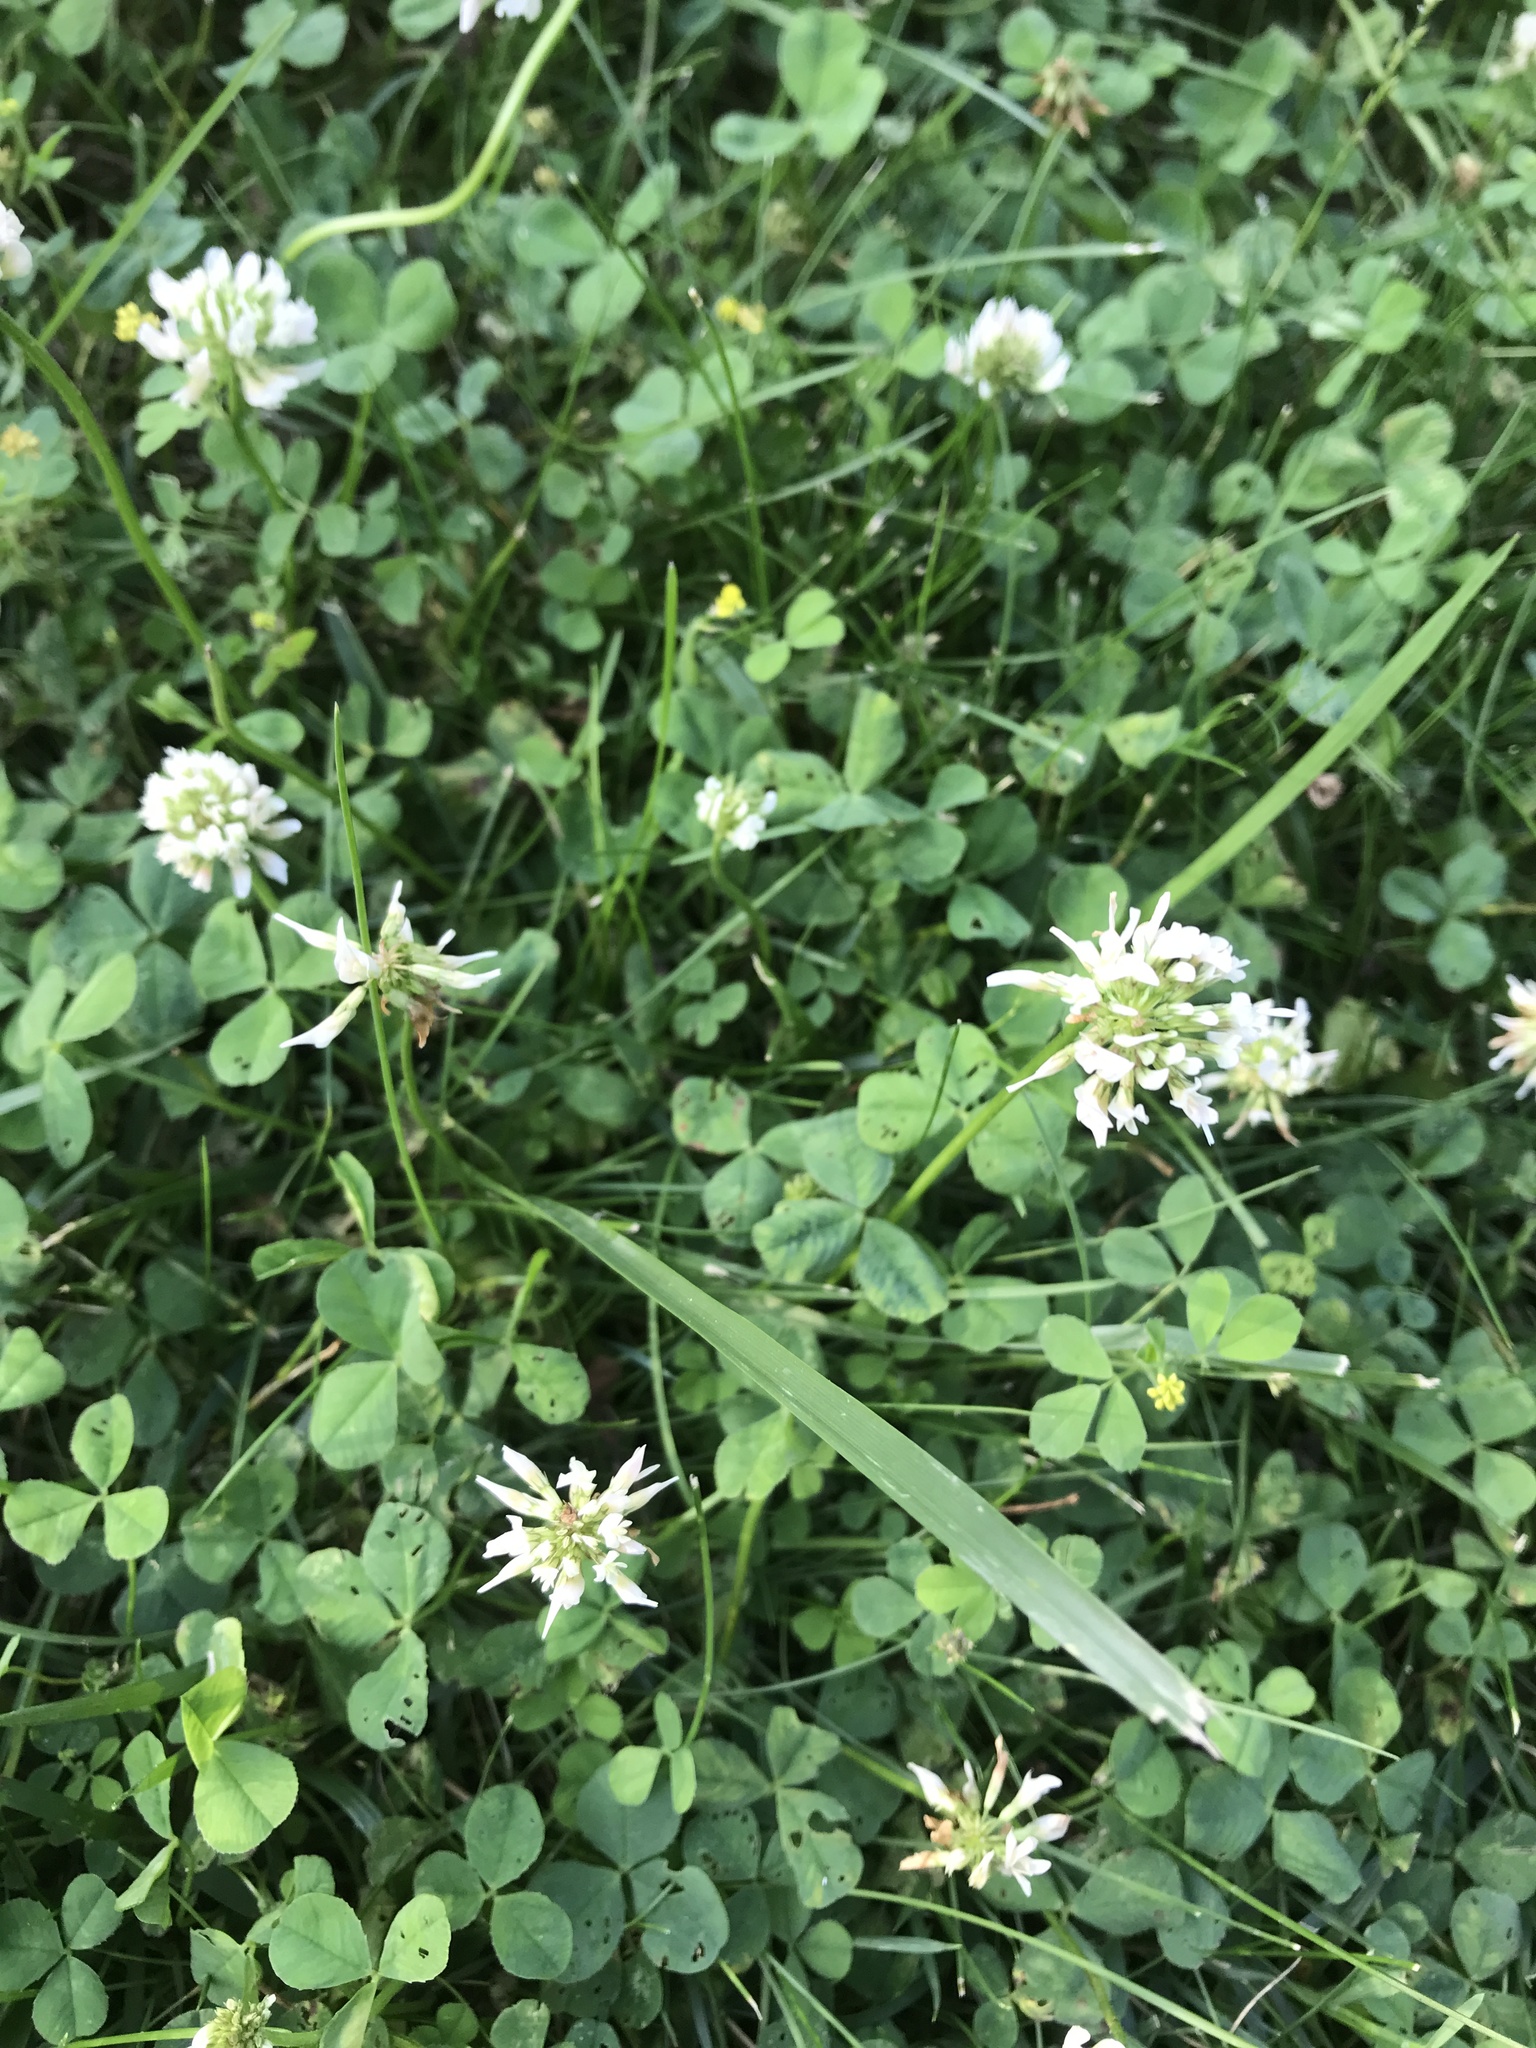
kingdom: Plantae
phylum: Tracheophyta
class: Magnoliopsida
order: Fabales
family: Fabaceae
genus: Trifolium
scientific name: Trifolium repens
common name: White clover
